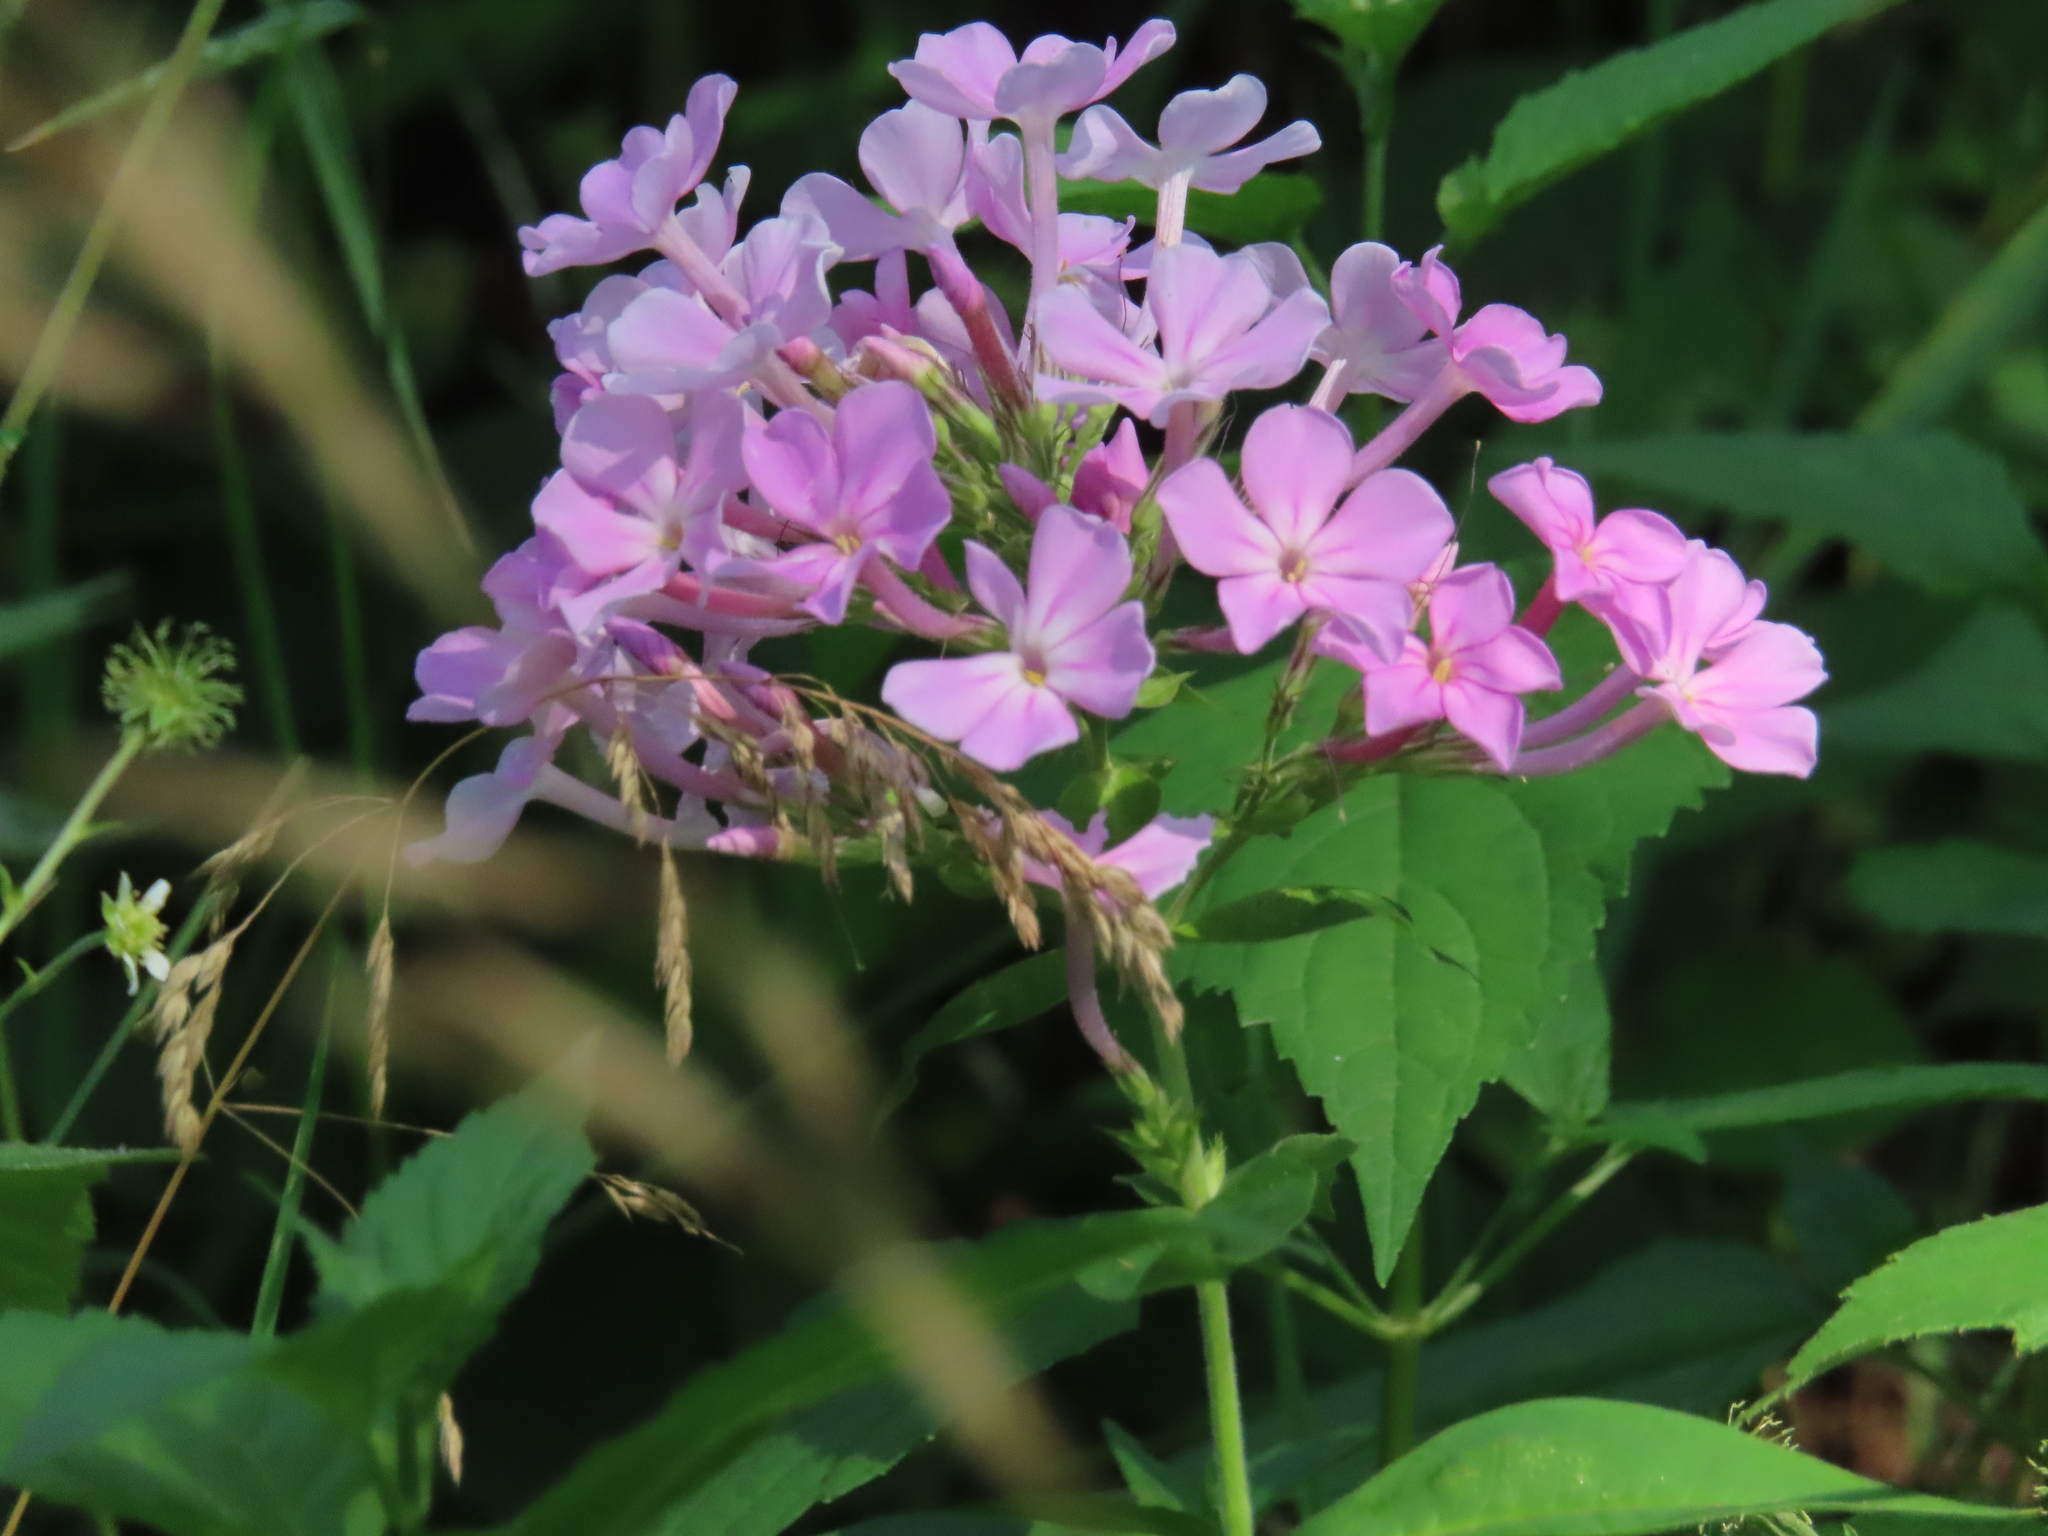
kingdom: Plantae
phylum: Tracheophyta
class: Magnoliopsida
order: Ericales
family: Polemoniaceae
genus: Phlox
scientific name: Phlox paniculata
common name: Fall phlox
